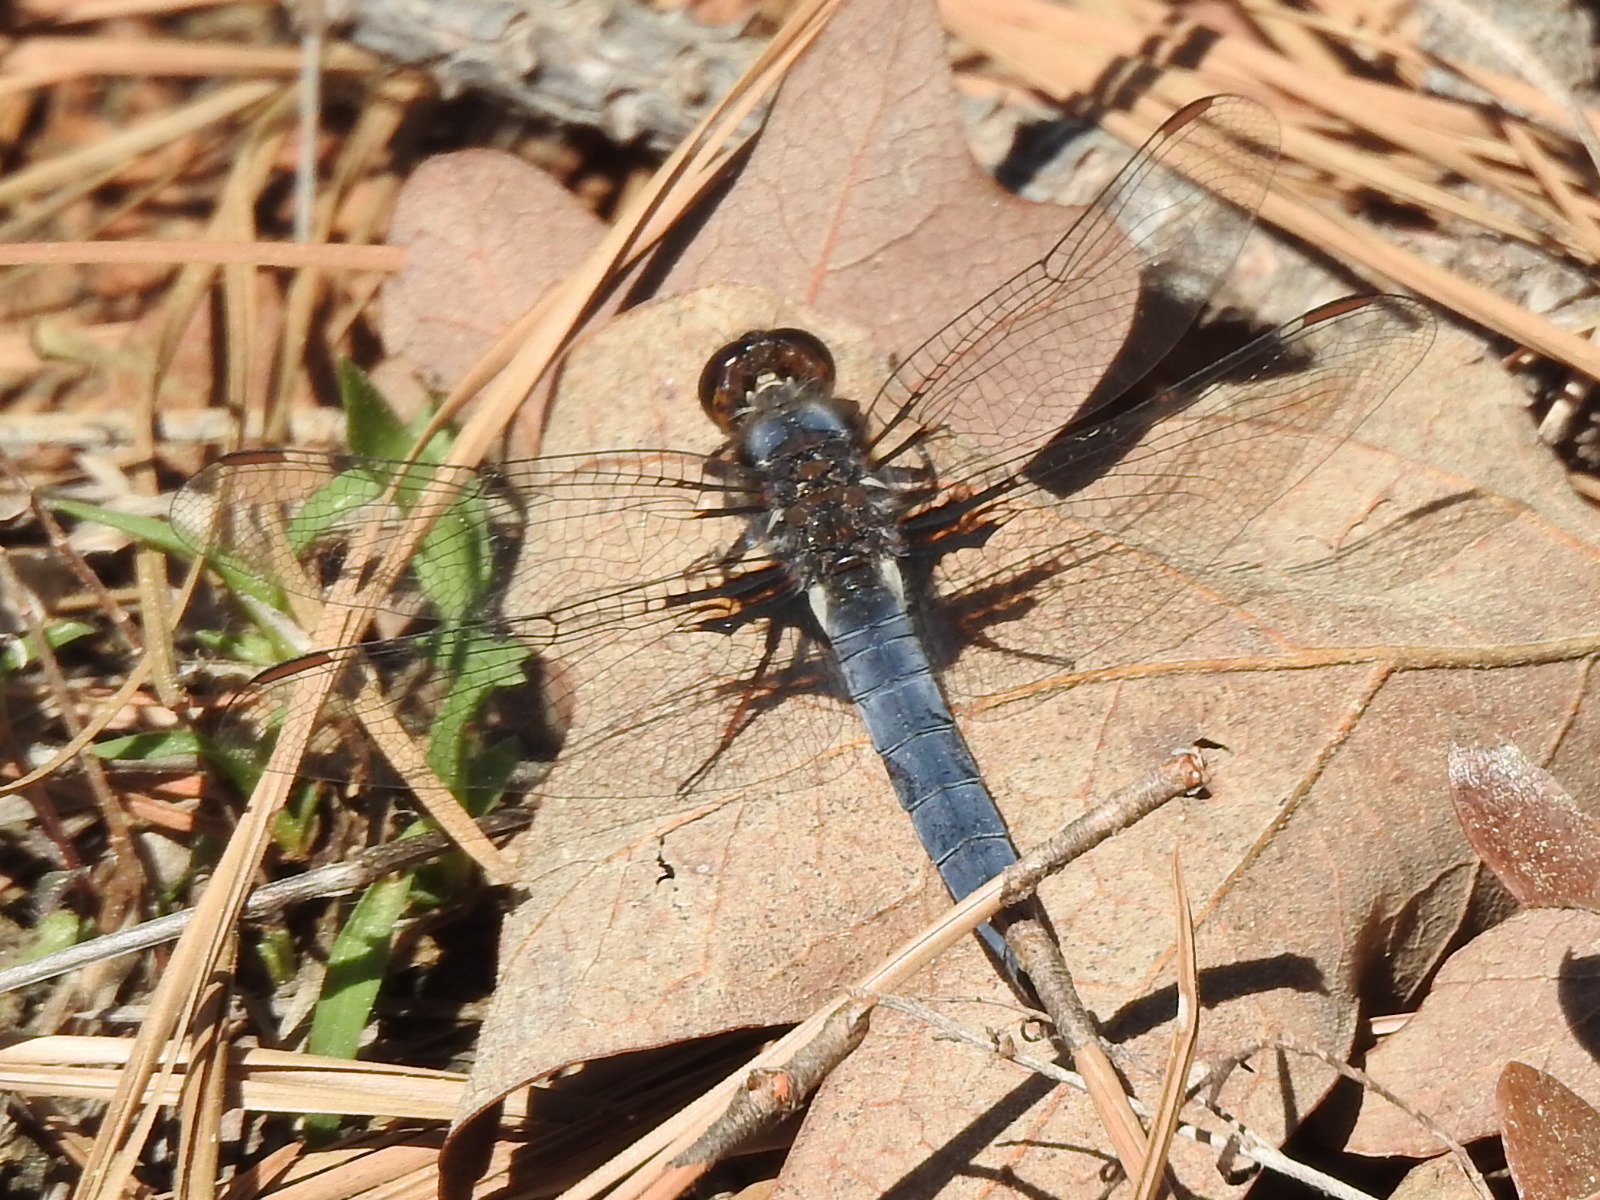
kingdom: Animalia
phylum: Arthropoda
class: Insecta
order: Odonata
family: Libellulidae
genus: Ladona
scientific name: Ladona deplanata
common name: Blue corporal
